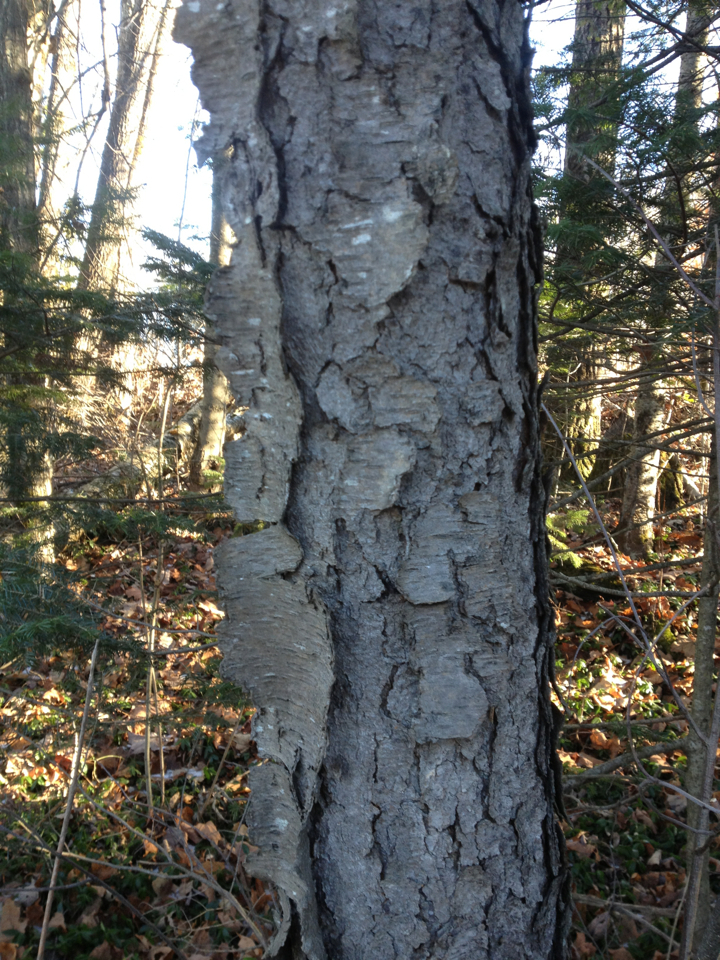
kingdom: Plantae
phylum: Tracheophyta
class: Magnoliopsida
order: Rosales
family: Rosaceae
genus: Prunus
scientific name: Prunus serotina
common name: Black cherry
